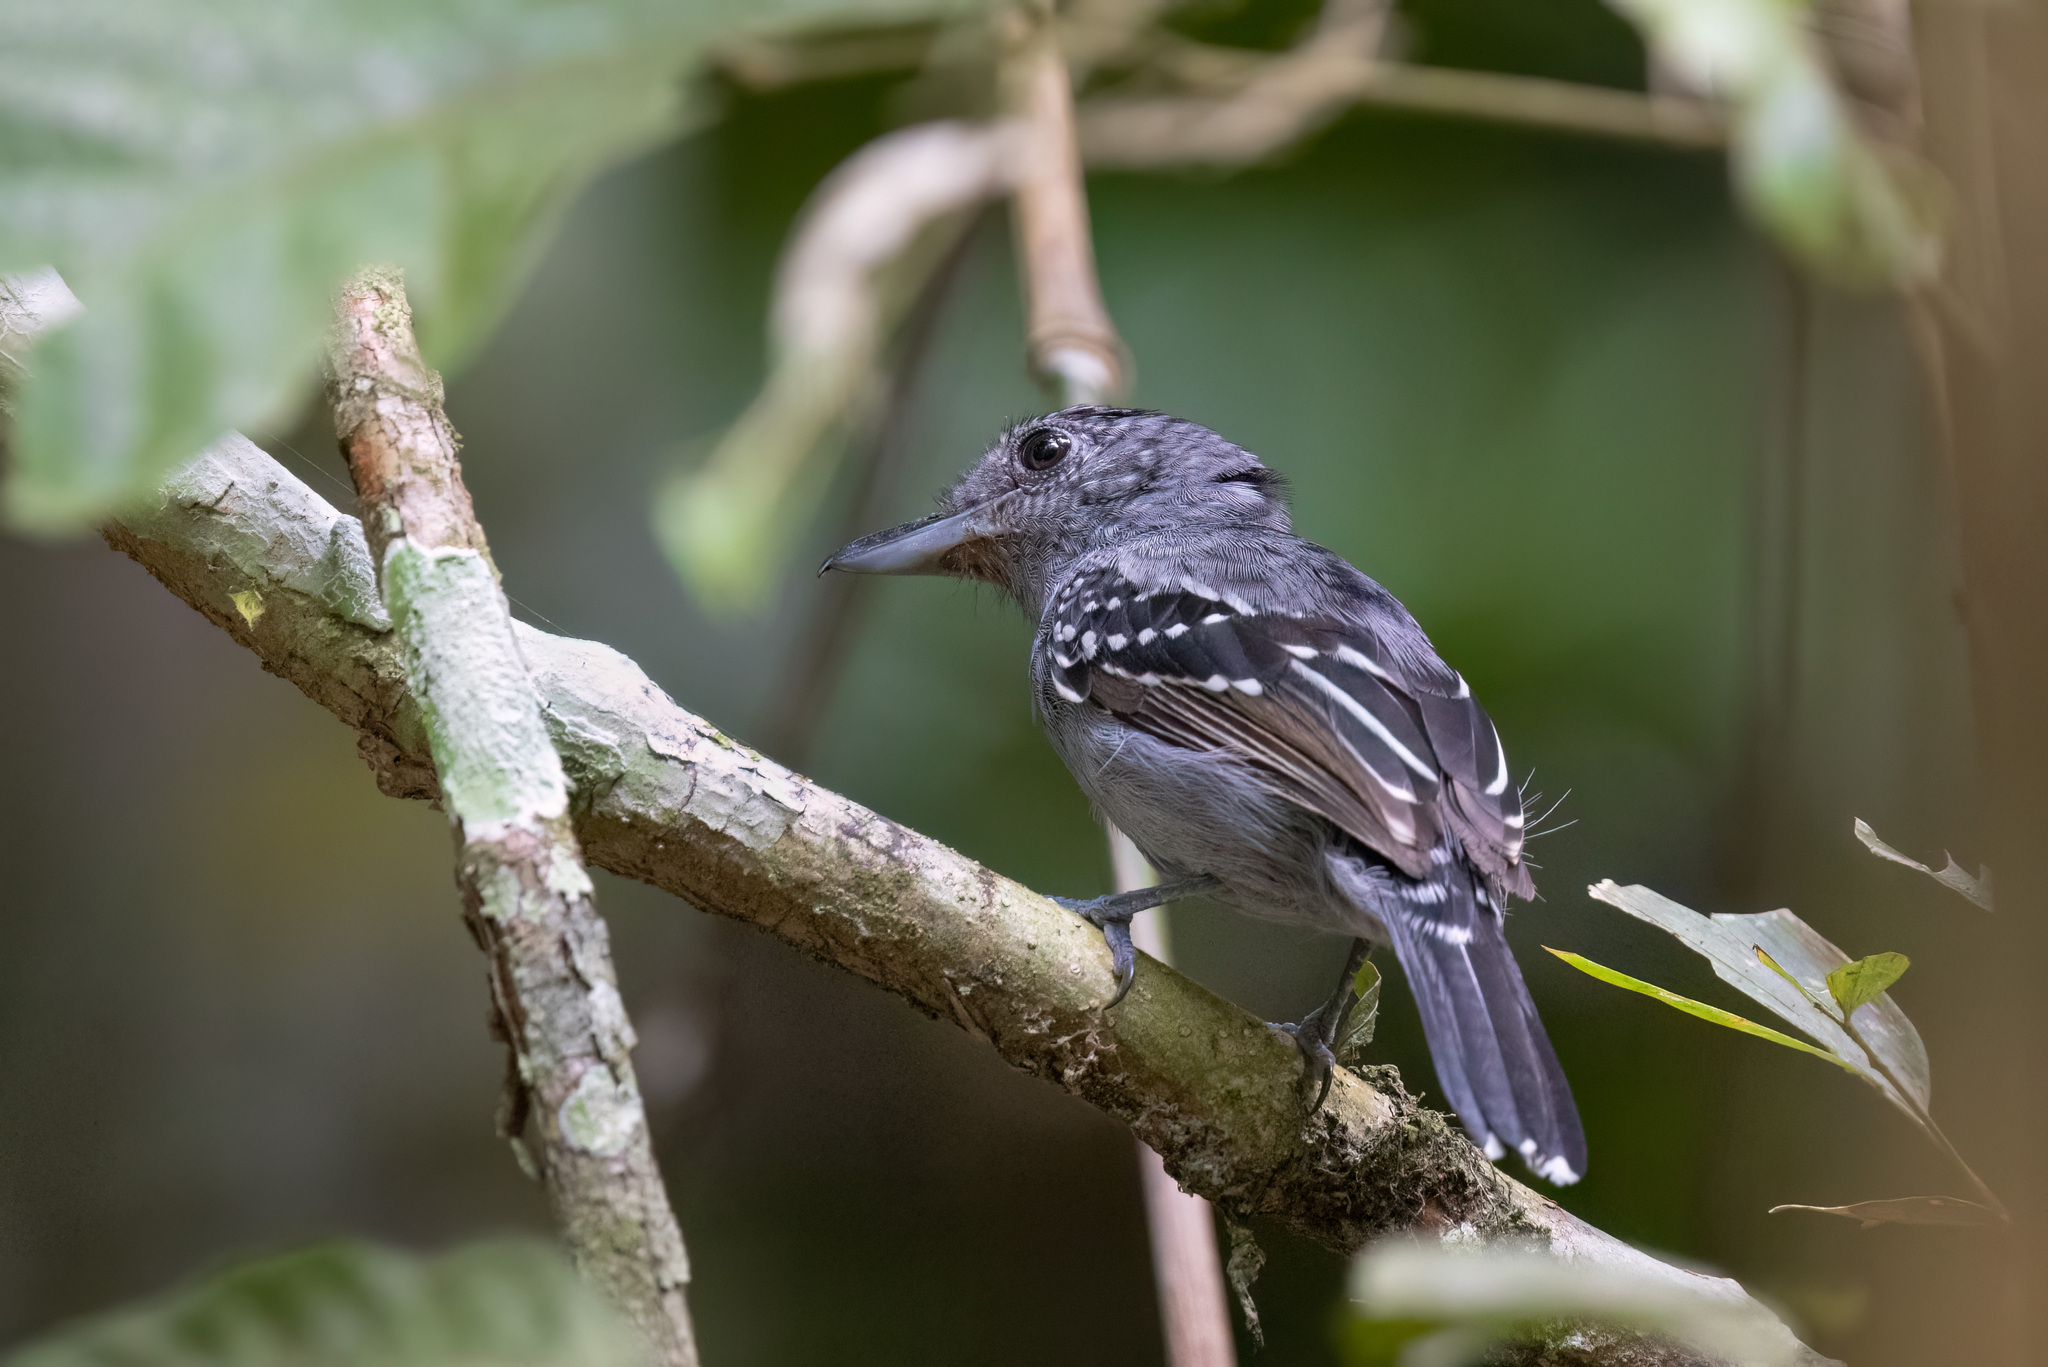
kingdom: Animalia
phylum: Chordata
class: Aves
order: Passeriformes
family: Thamnophilidae
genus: Thamnophilus
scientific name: Thamnophilus atrinucha
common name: Black-crowned antshrike
